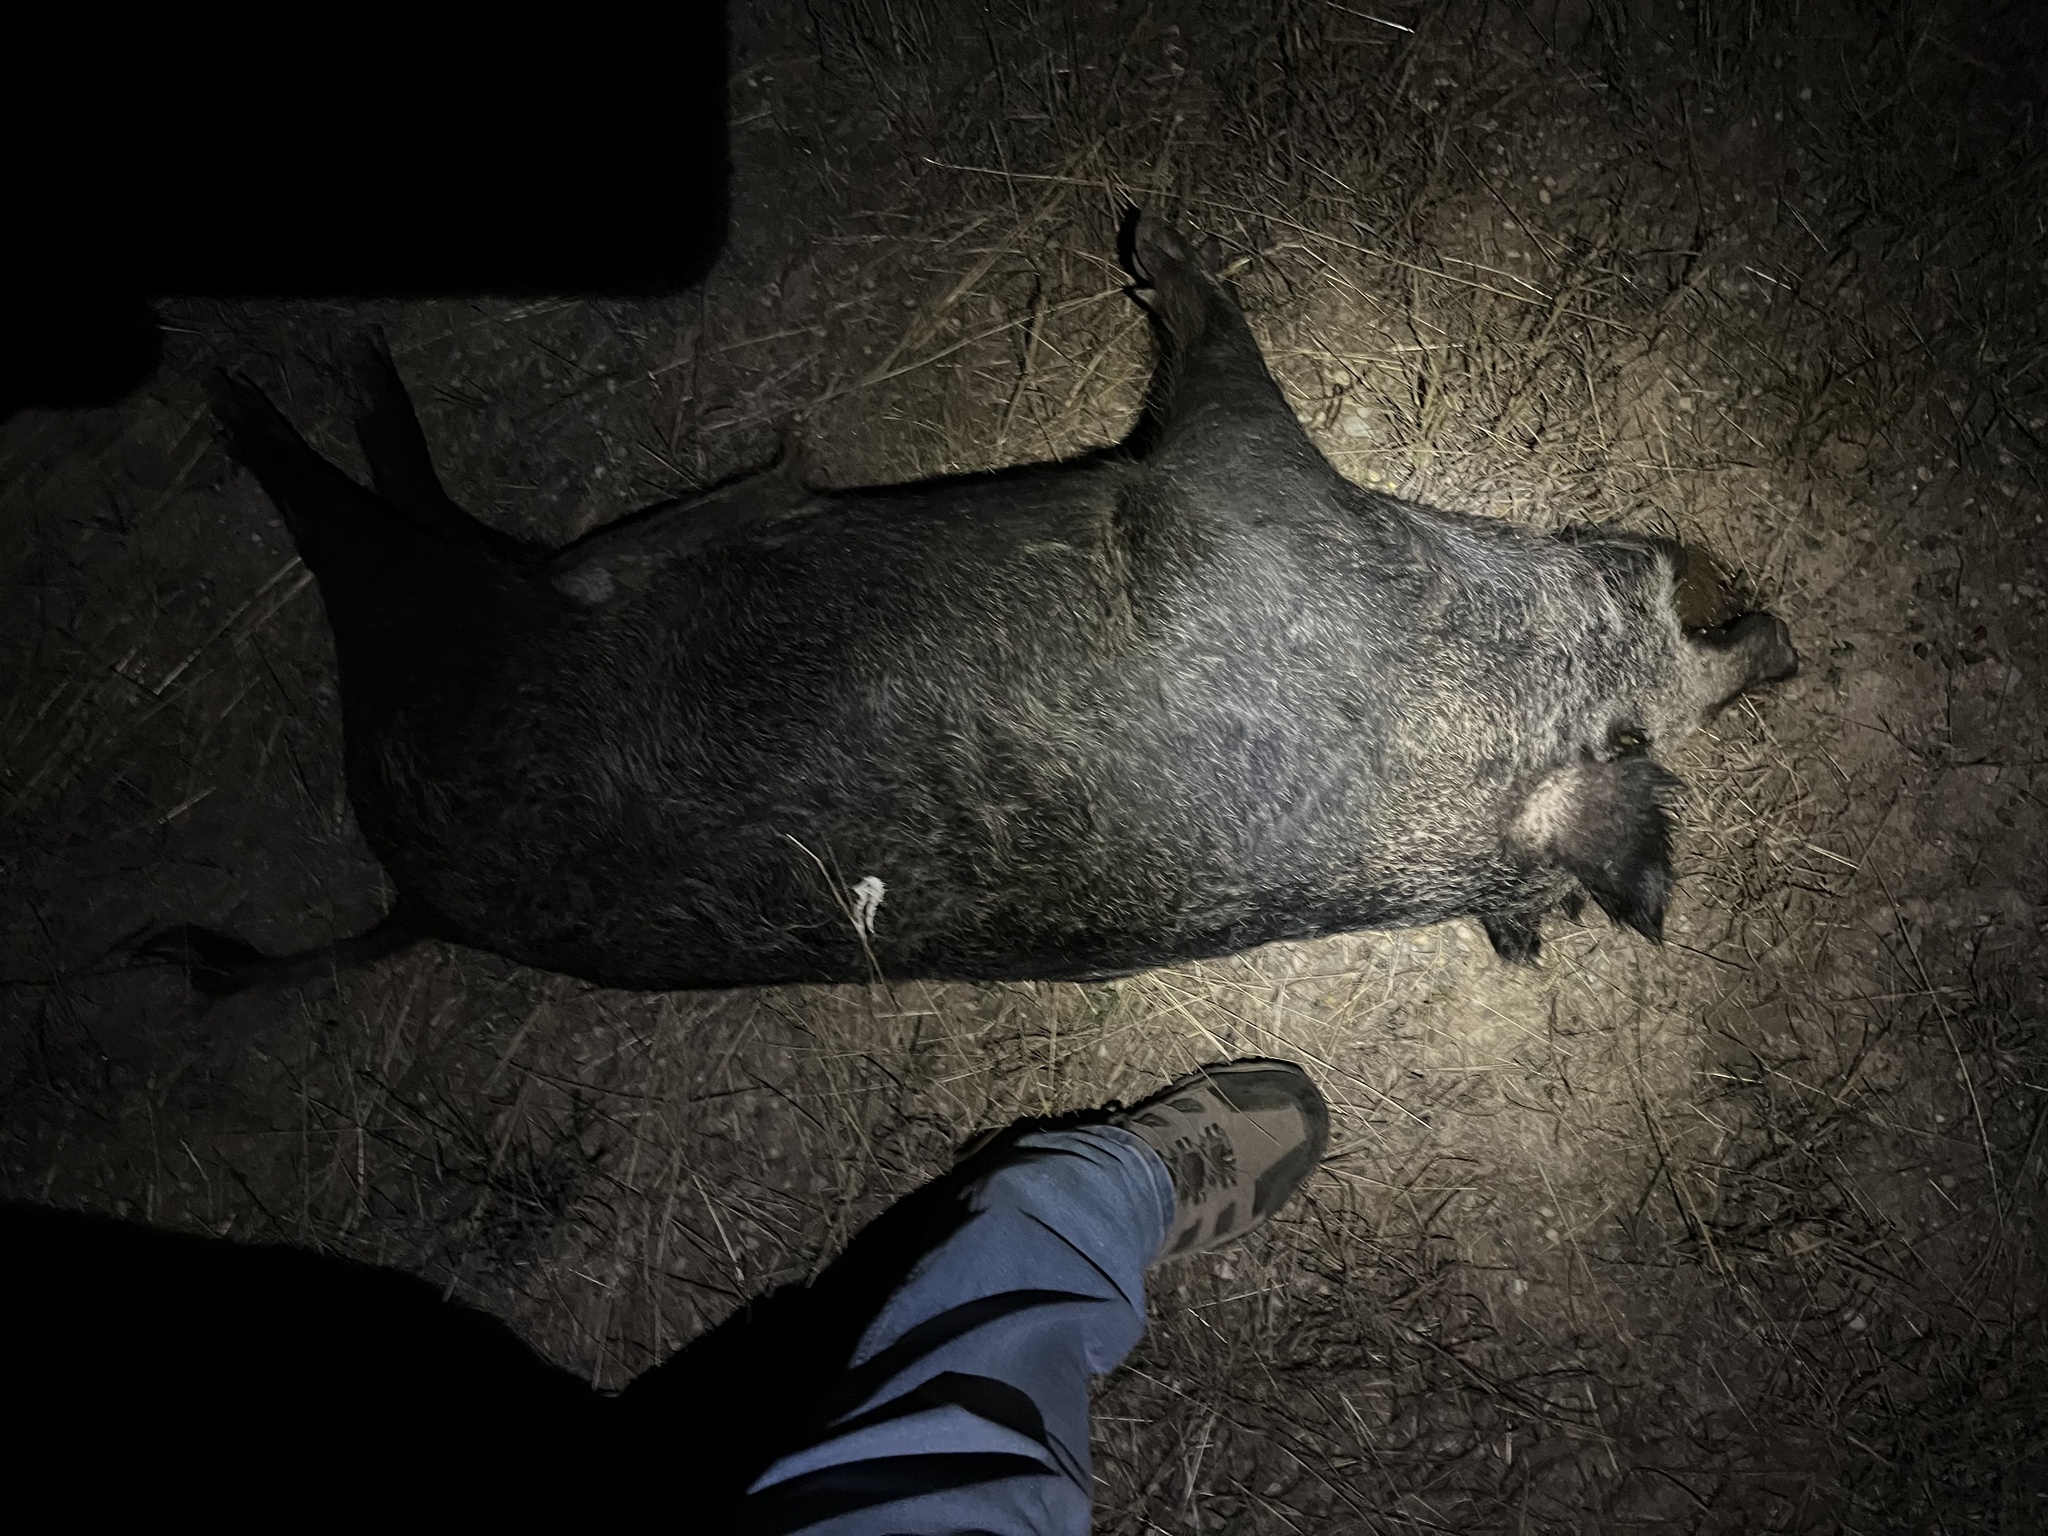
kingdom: Animalia
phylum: Chordata
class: Mammalia
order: Artiodactyla
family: Suidae
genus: Sus
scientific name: Sus scrofa
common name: Wild boar
